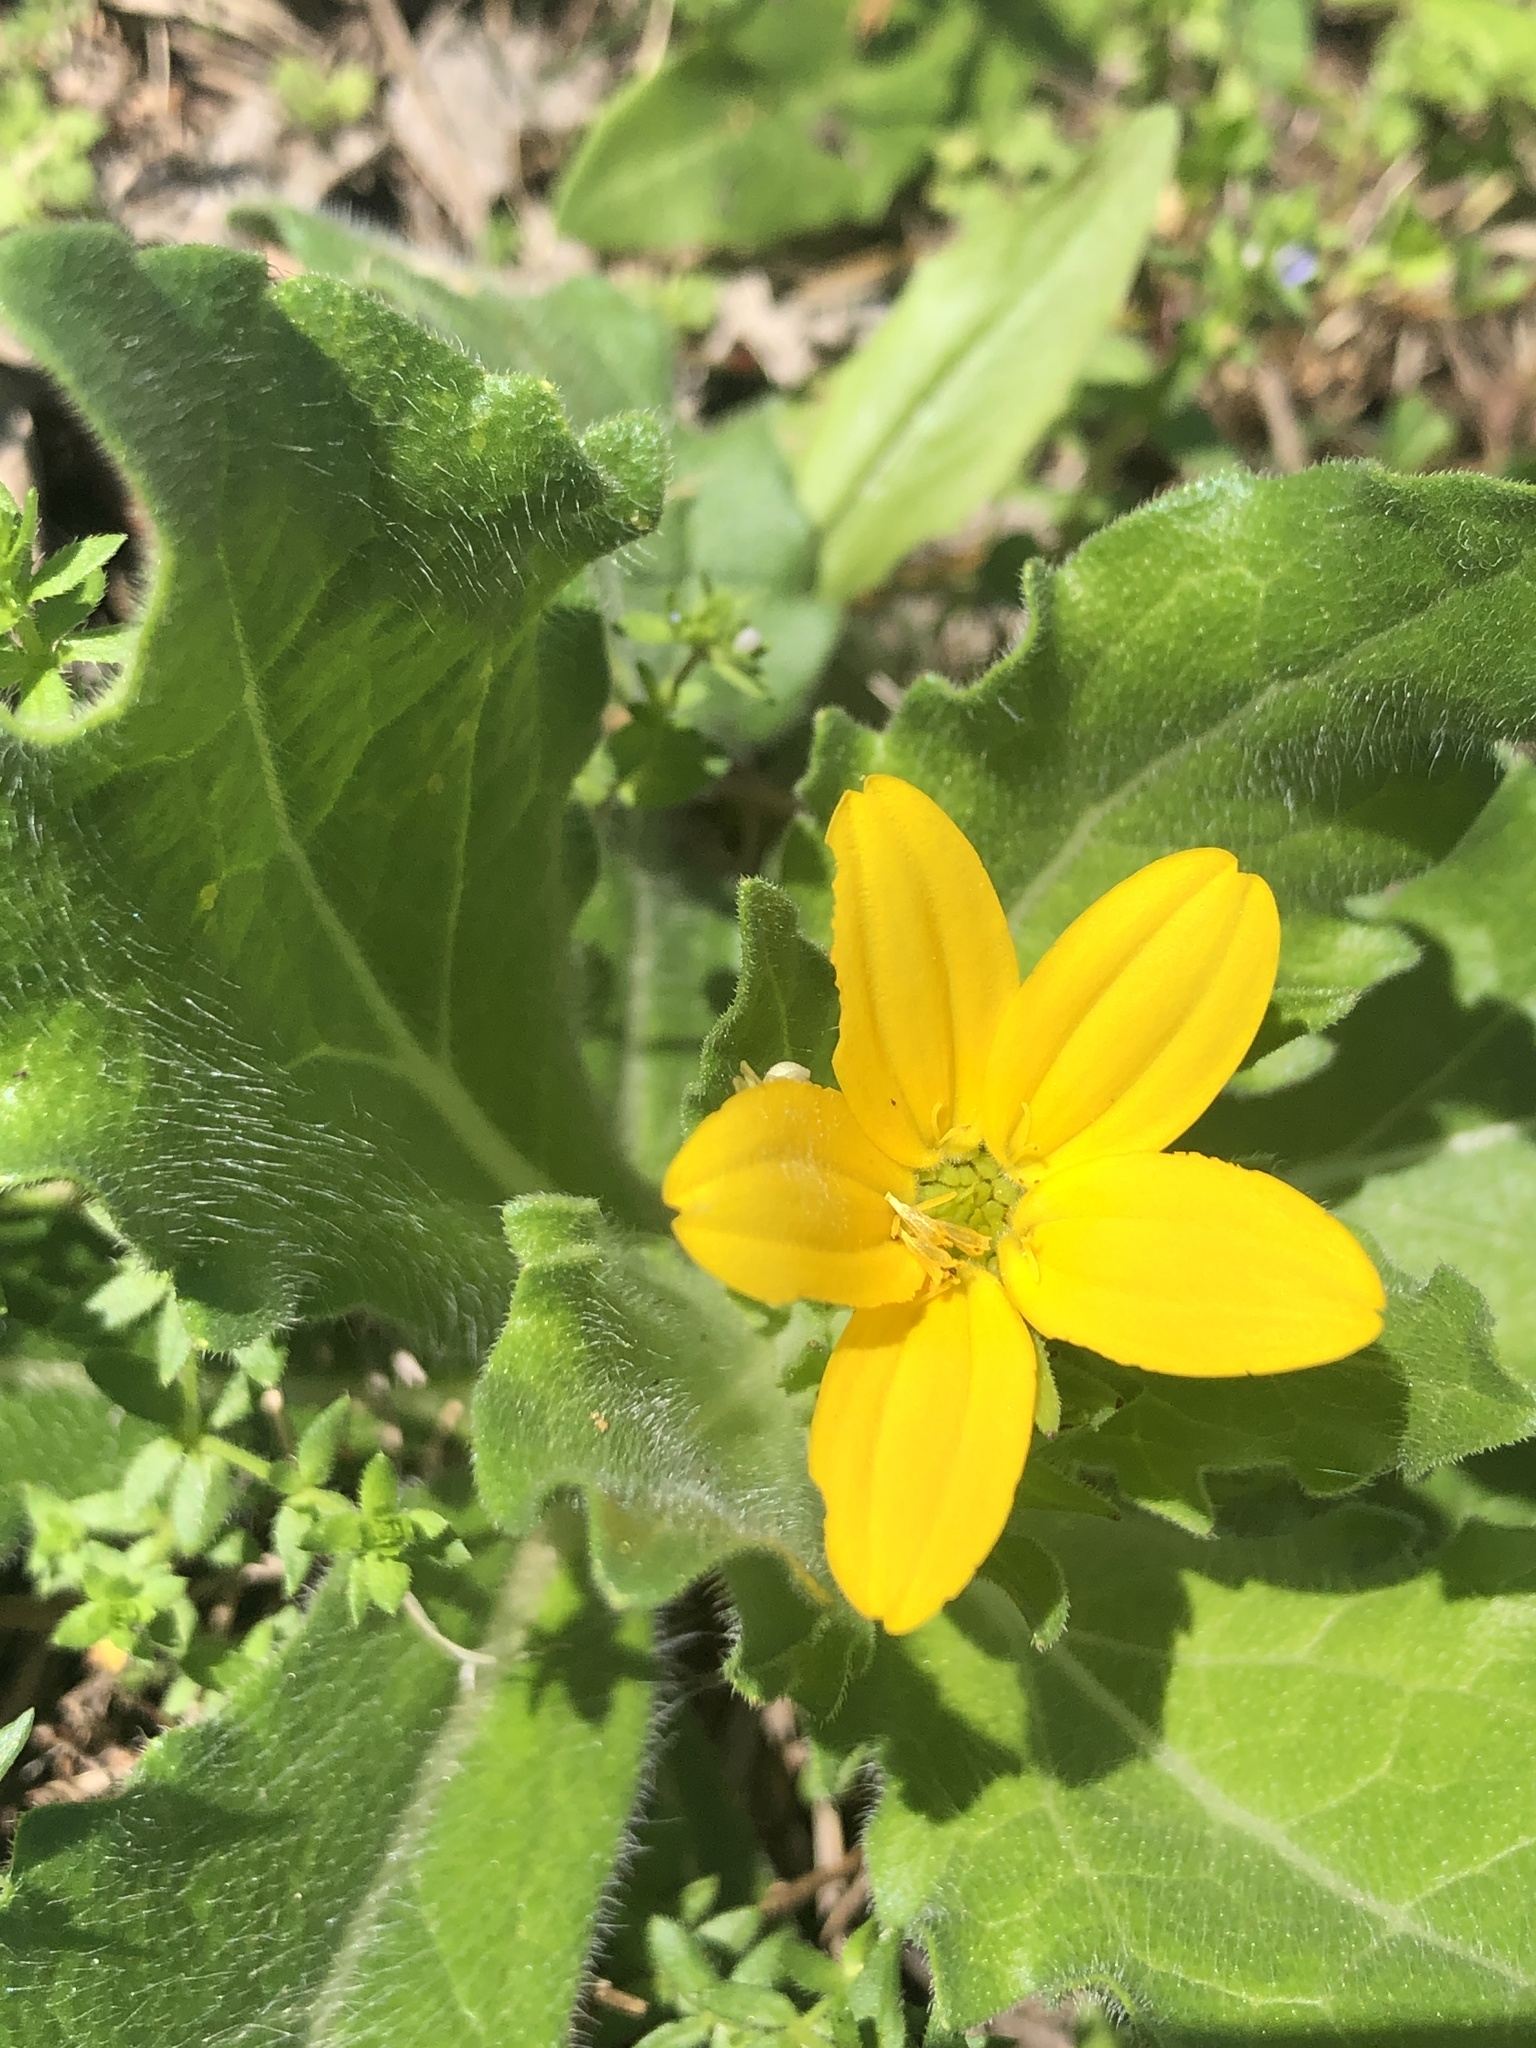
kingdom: Plantae
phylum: Tracheophyta
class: Magnoliopsida
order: Asterales
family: Asteraceae
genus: Lindheimera
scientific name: Lindheimera texana
